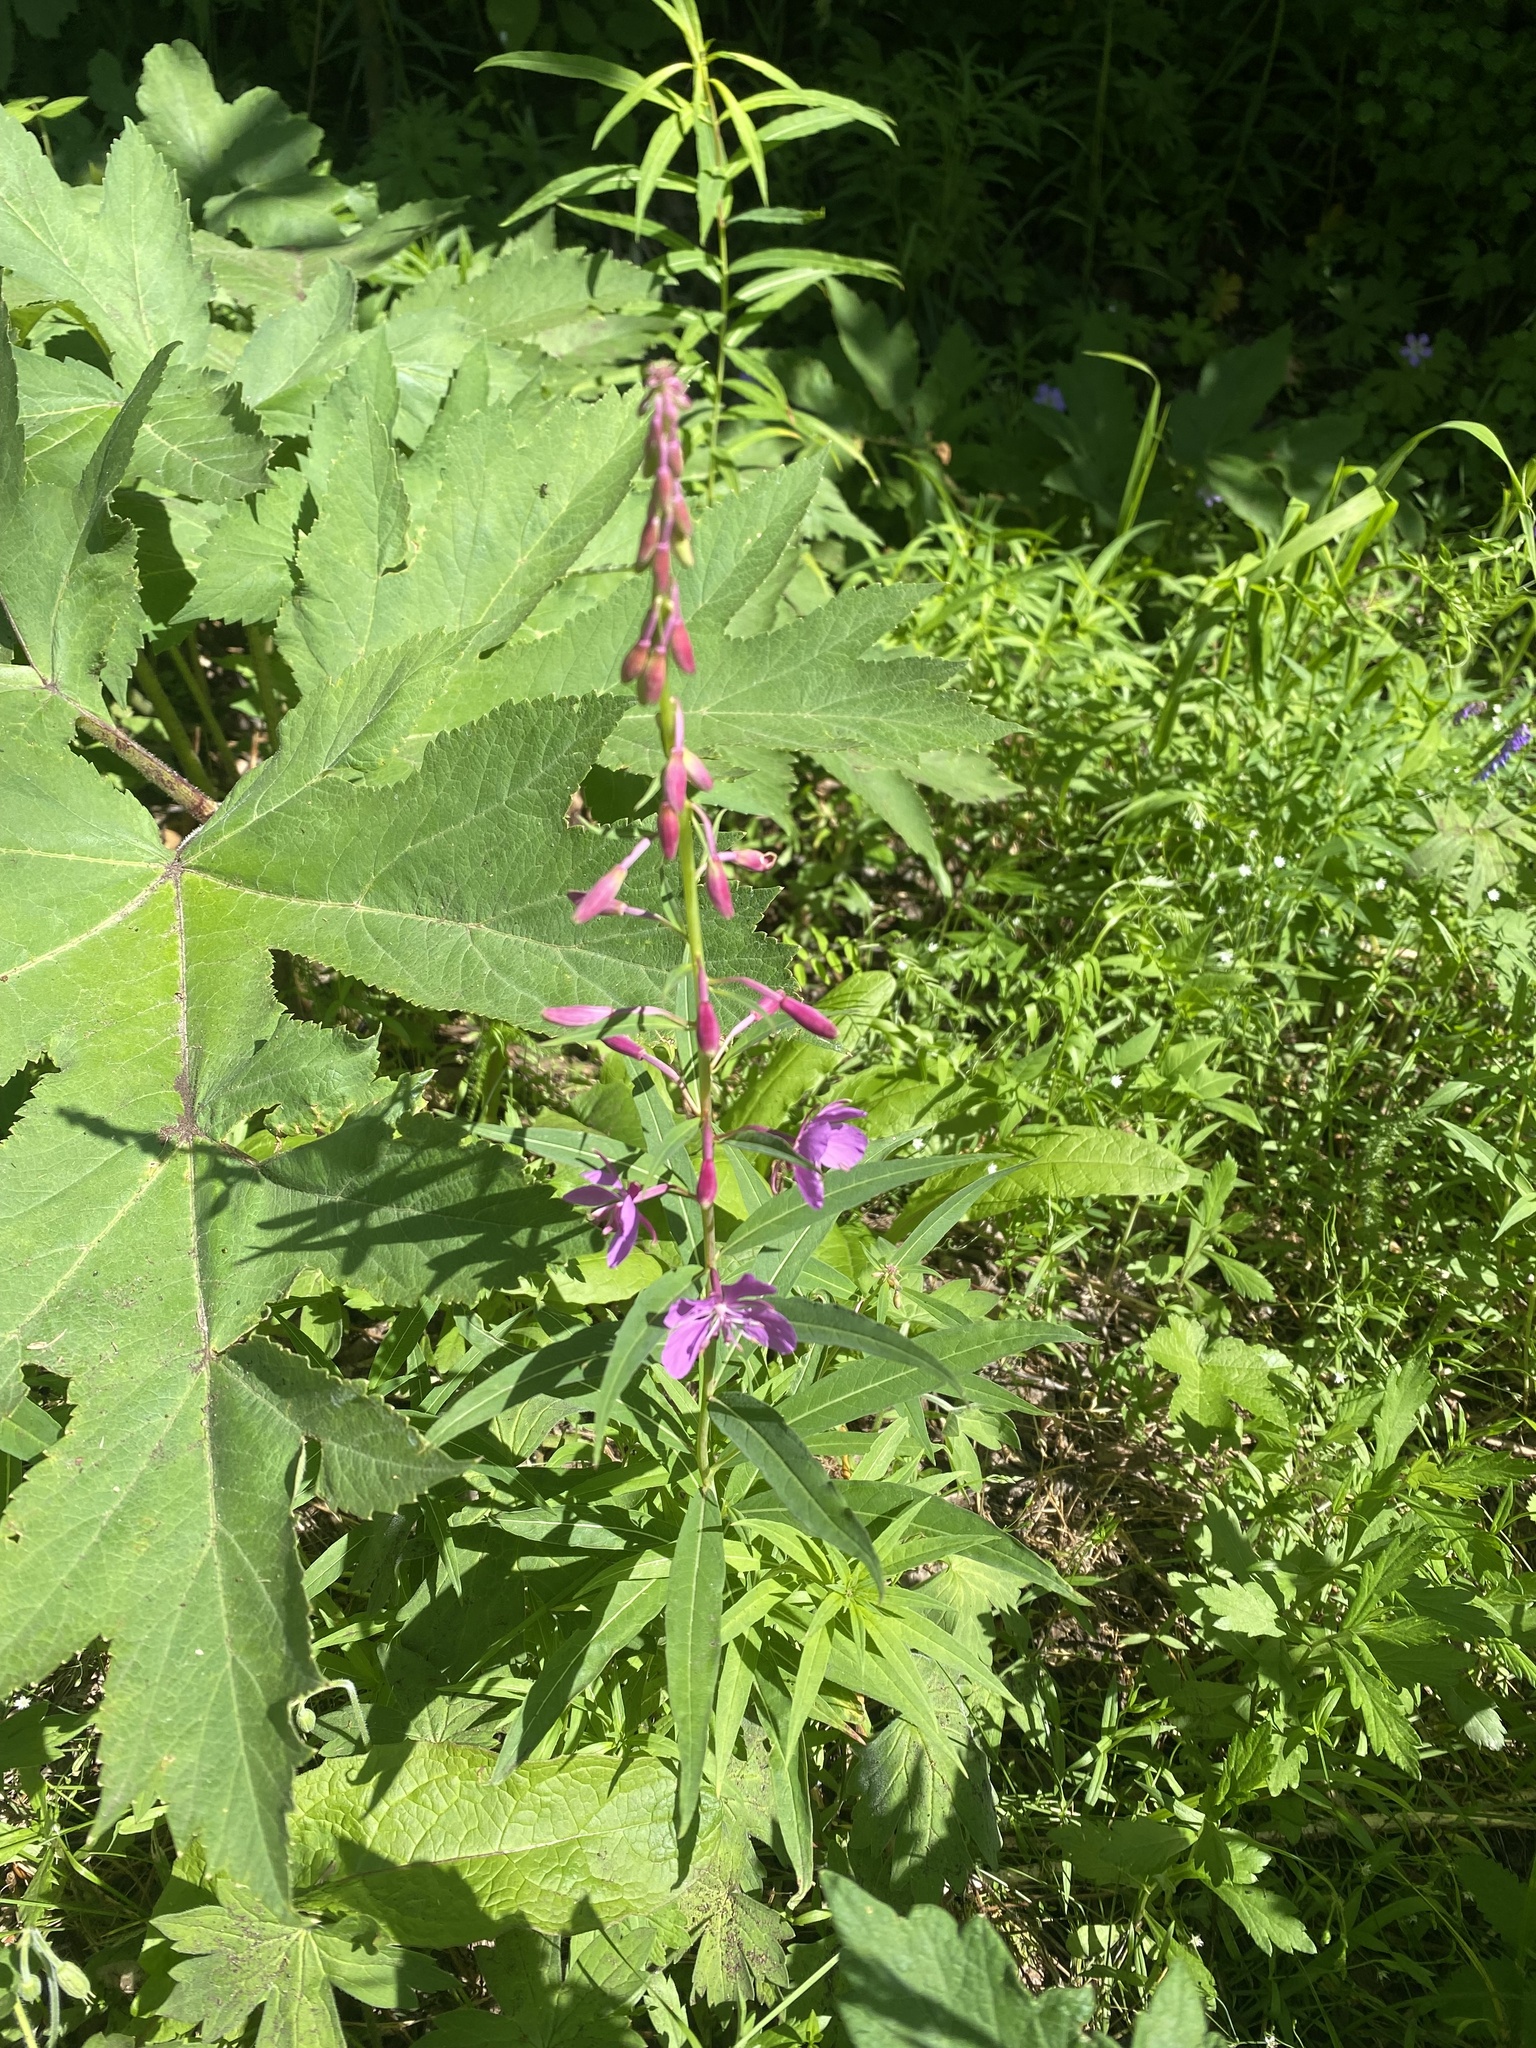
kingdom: Plantae
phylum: Tracheophyta
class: Magnoliopsida
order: Myrtales
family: Onagraceae
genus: Chamaenerion
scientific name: Chamaenerion angustifolium
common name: Fireweed
